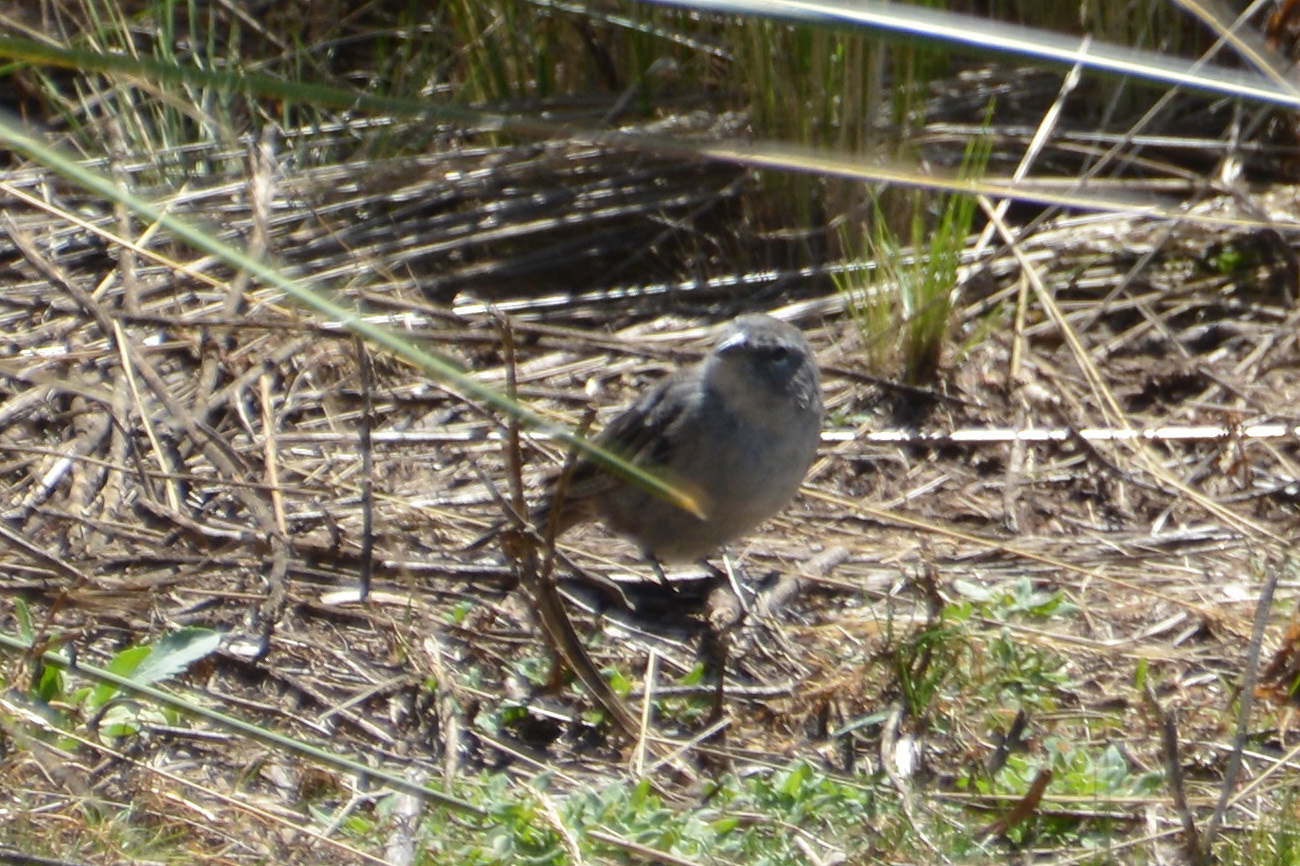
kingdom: Animalia
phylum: Chordata
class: Aves
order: Passeriformes
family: Thraupidae
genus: Geospizopsis
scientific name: Geospizopsis plebejus
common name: Ash-breasted sierra-finch
